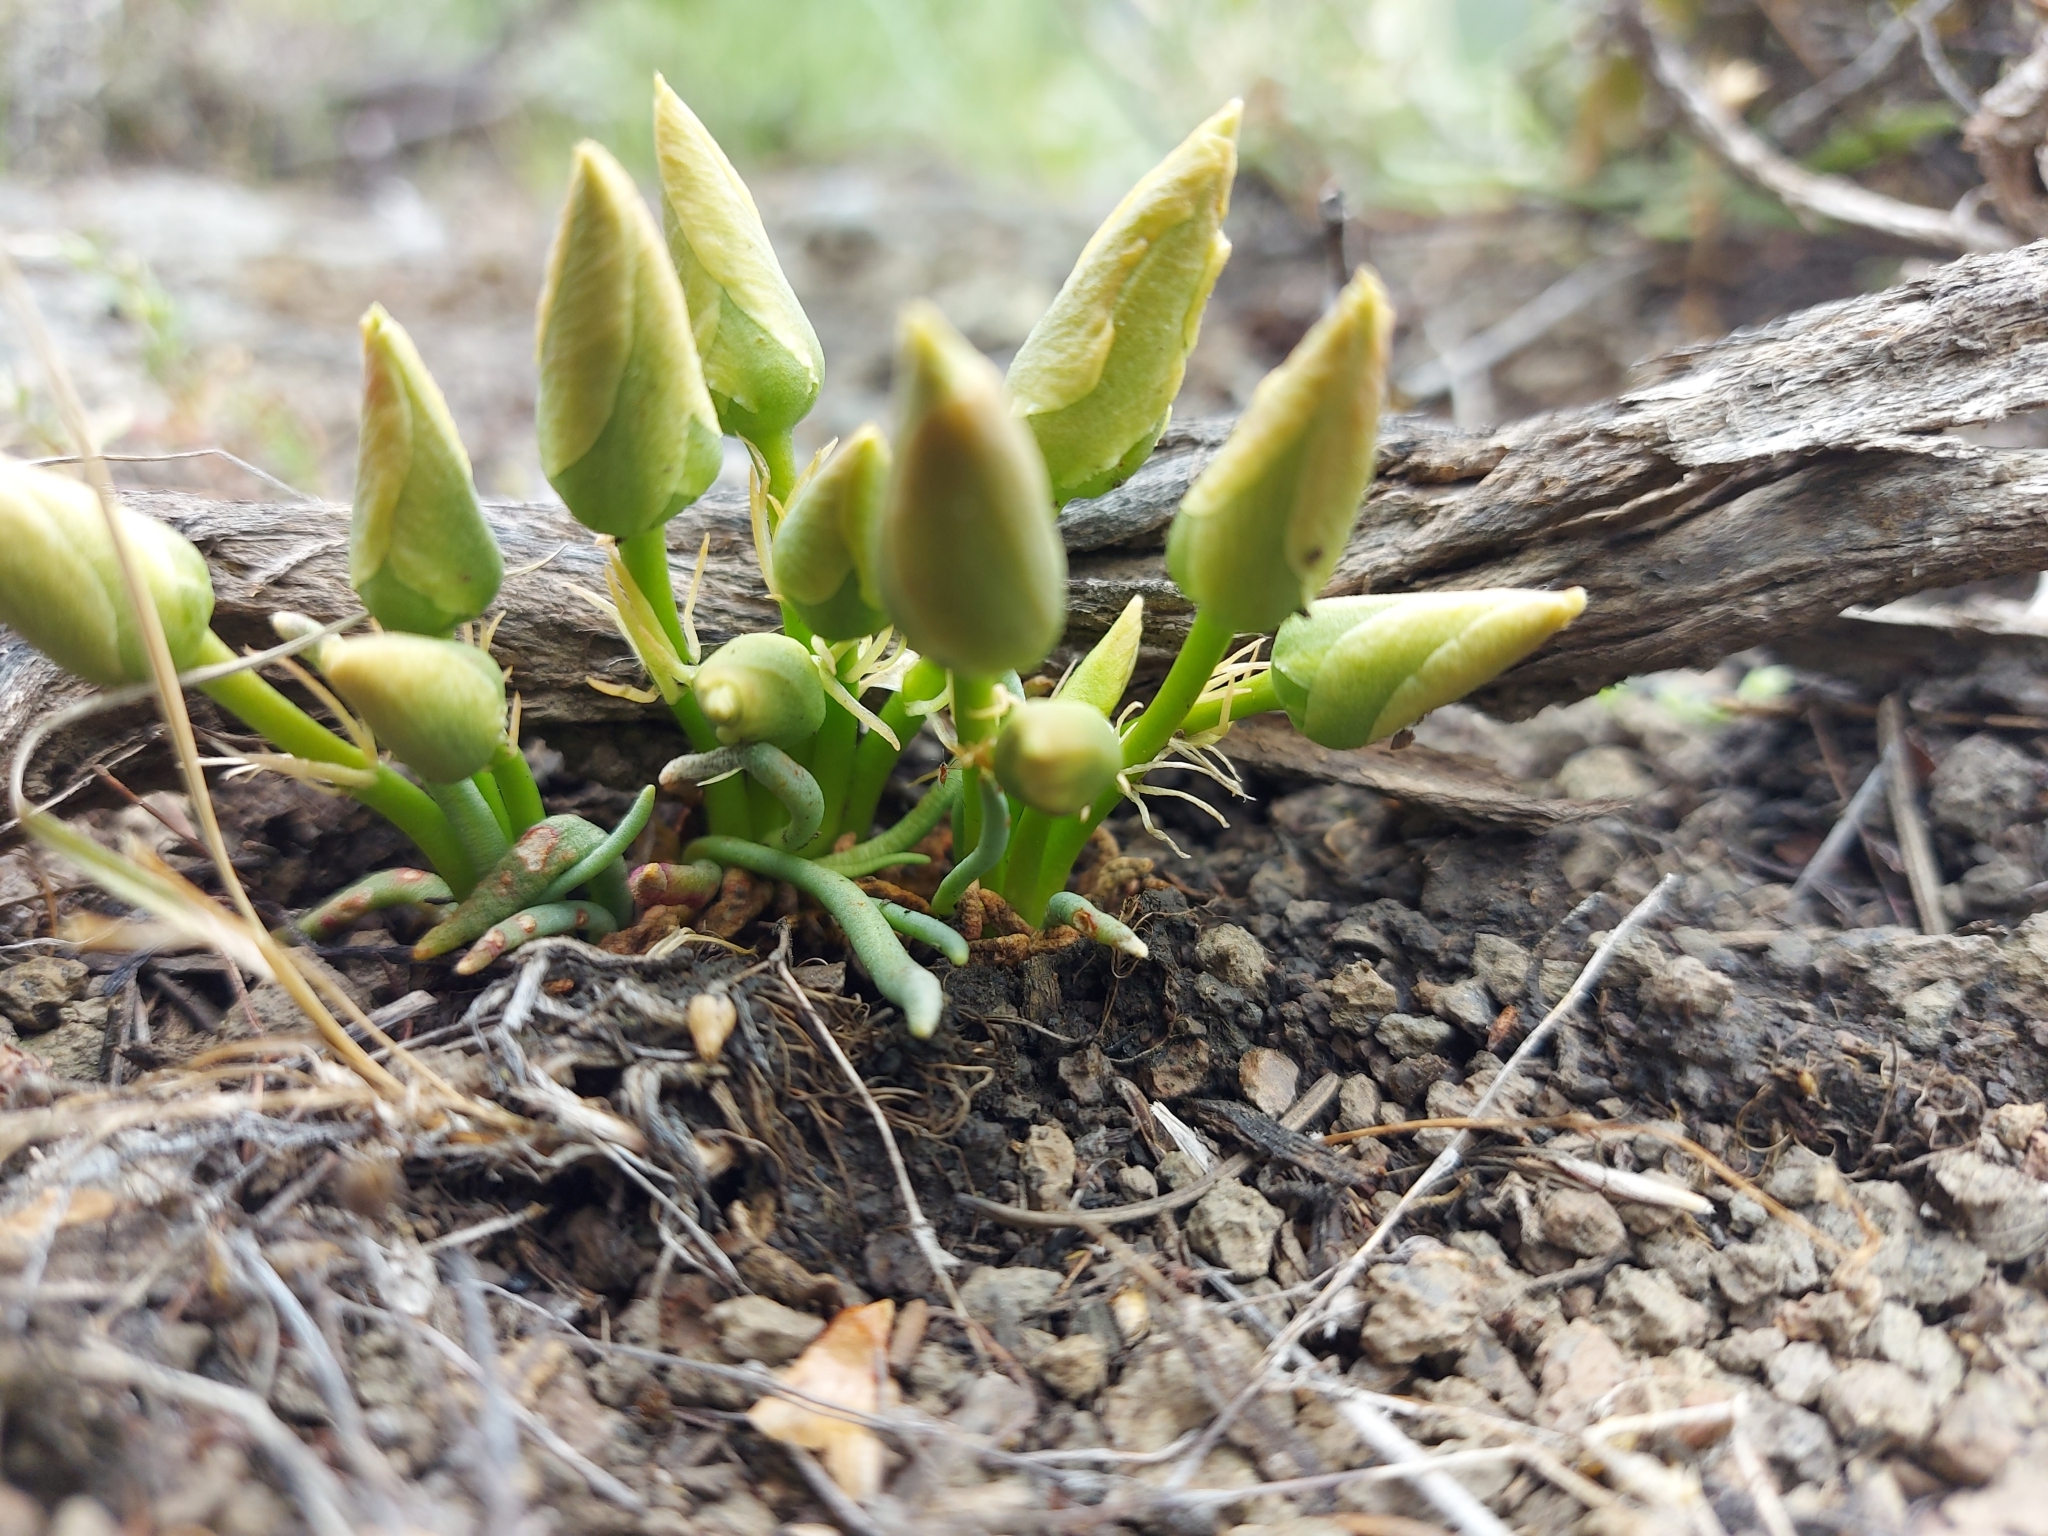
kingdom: Plantae
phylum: Tracheophyta
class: Magnoliopsida
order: Caryophyllales
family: Montiaceae
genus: Lewisia
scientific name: Lewisia rediviva
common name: Bitter-root
